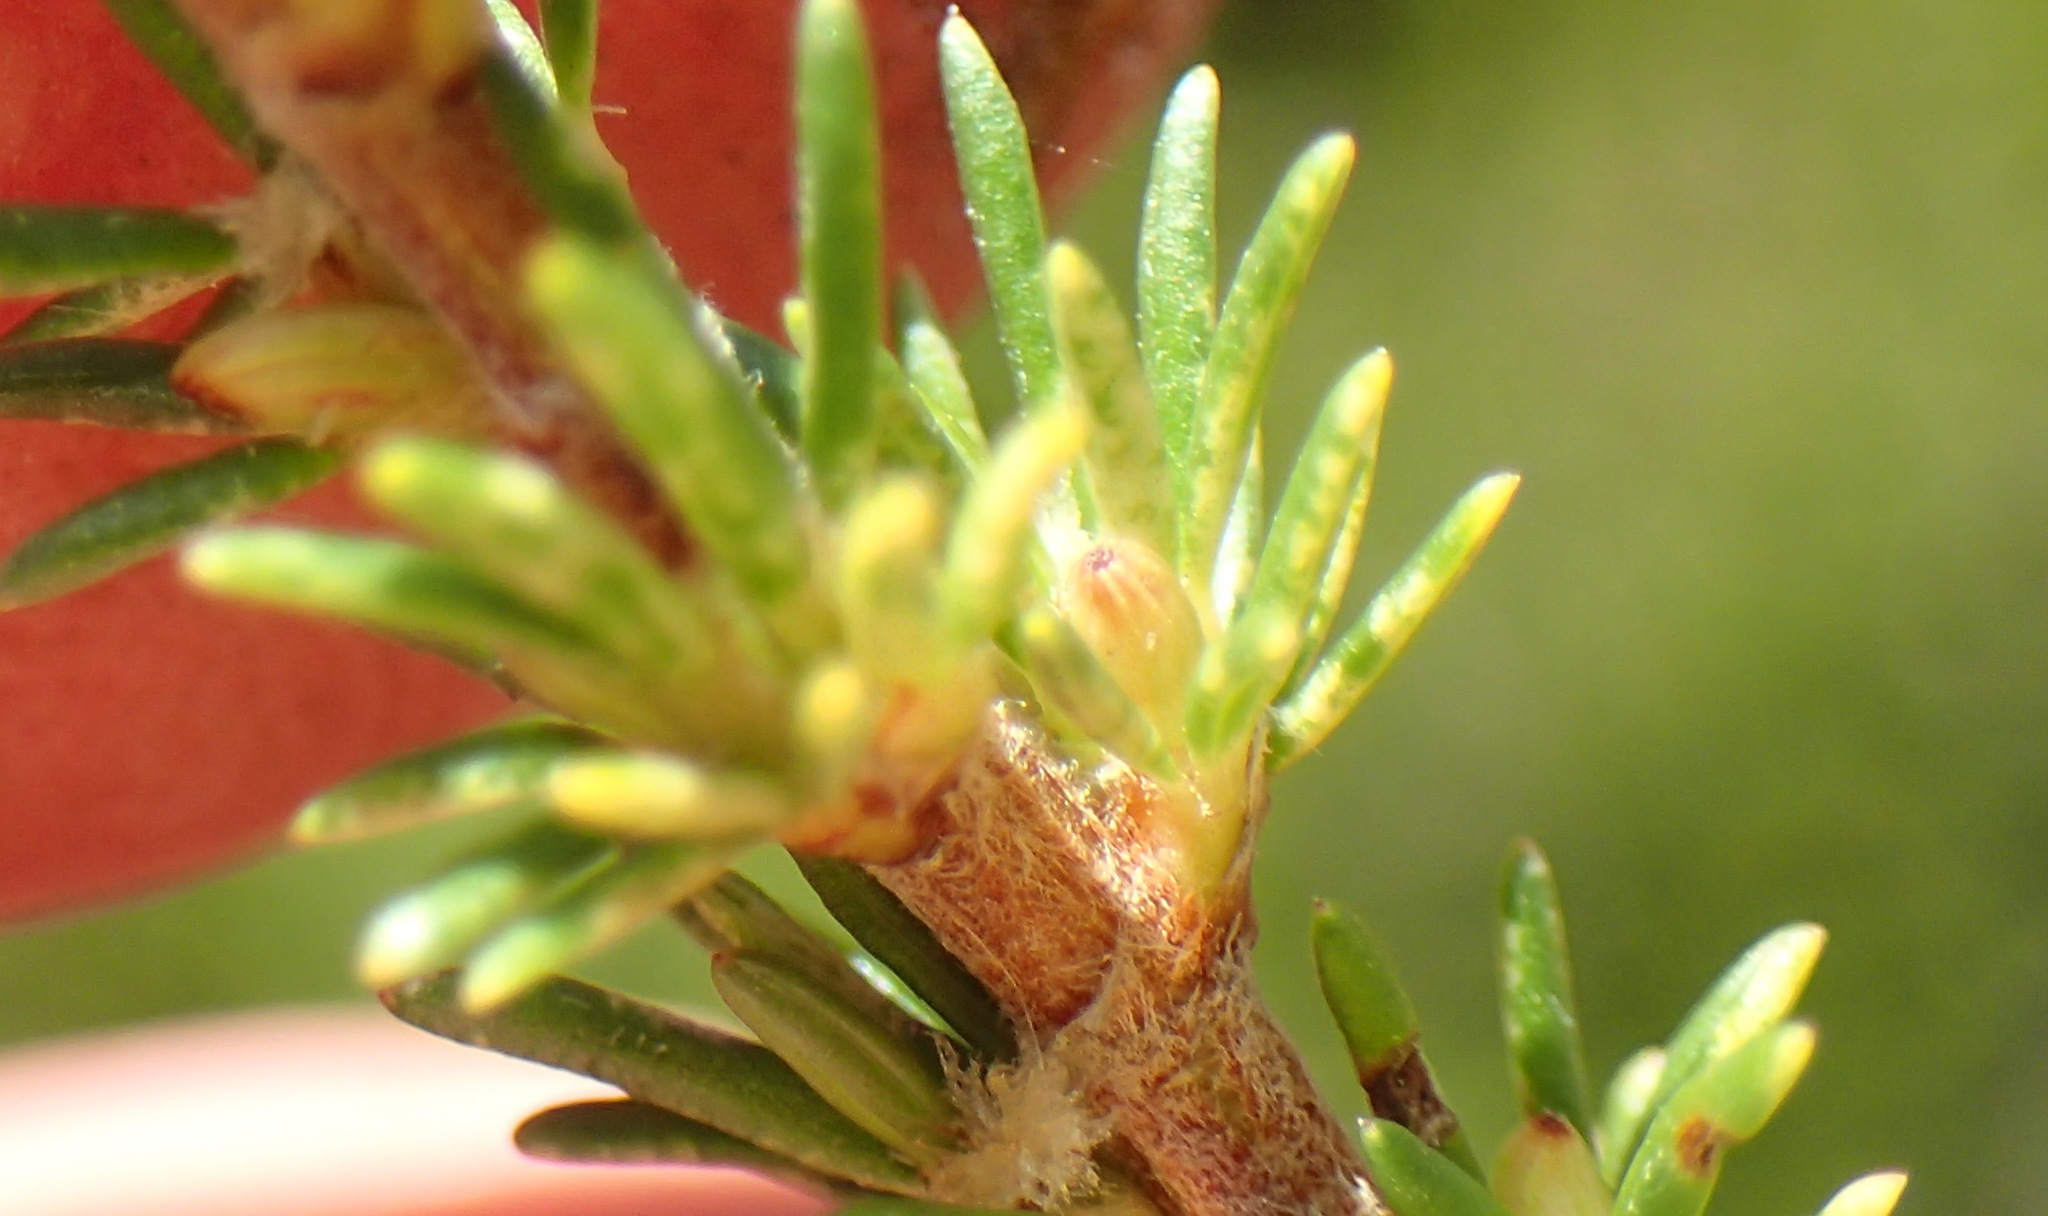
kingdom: Plantae
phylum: Tracheophyta
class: Magnoliopsida
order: Rosales
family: Rosaceae
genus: Cliffortia
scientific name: Cliffortia tuberculata
